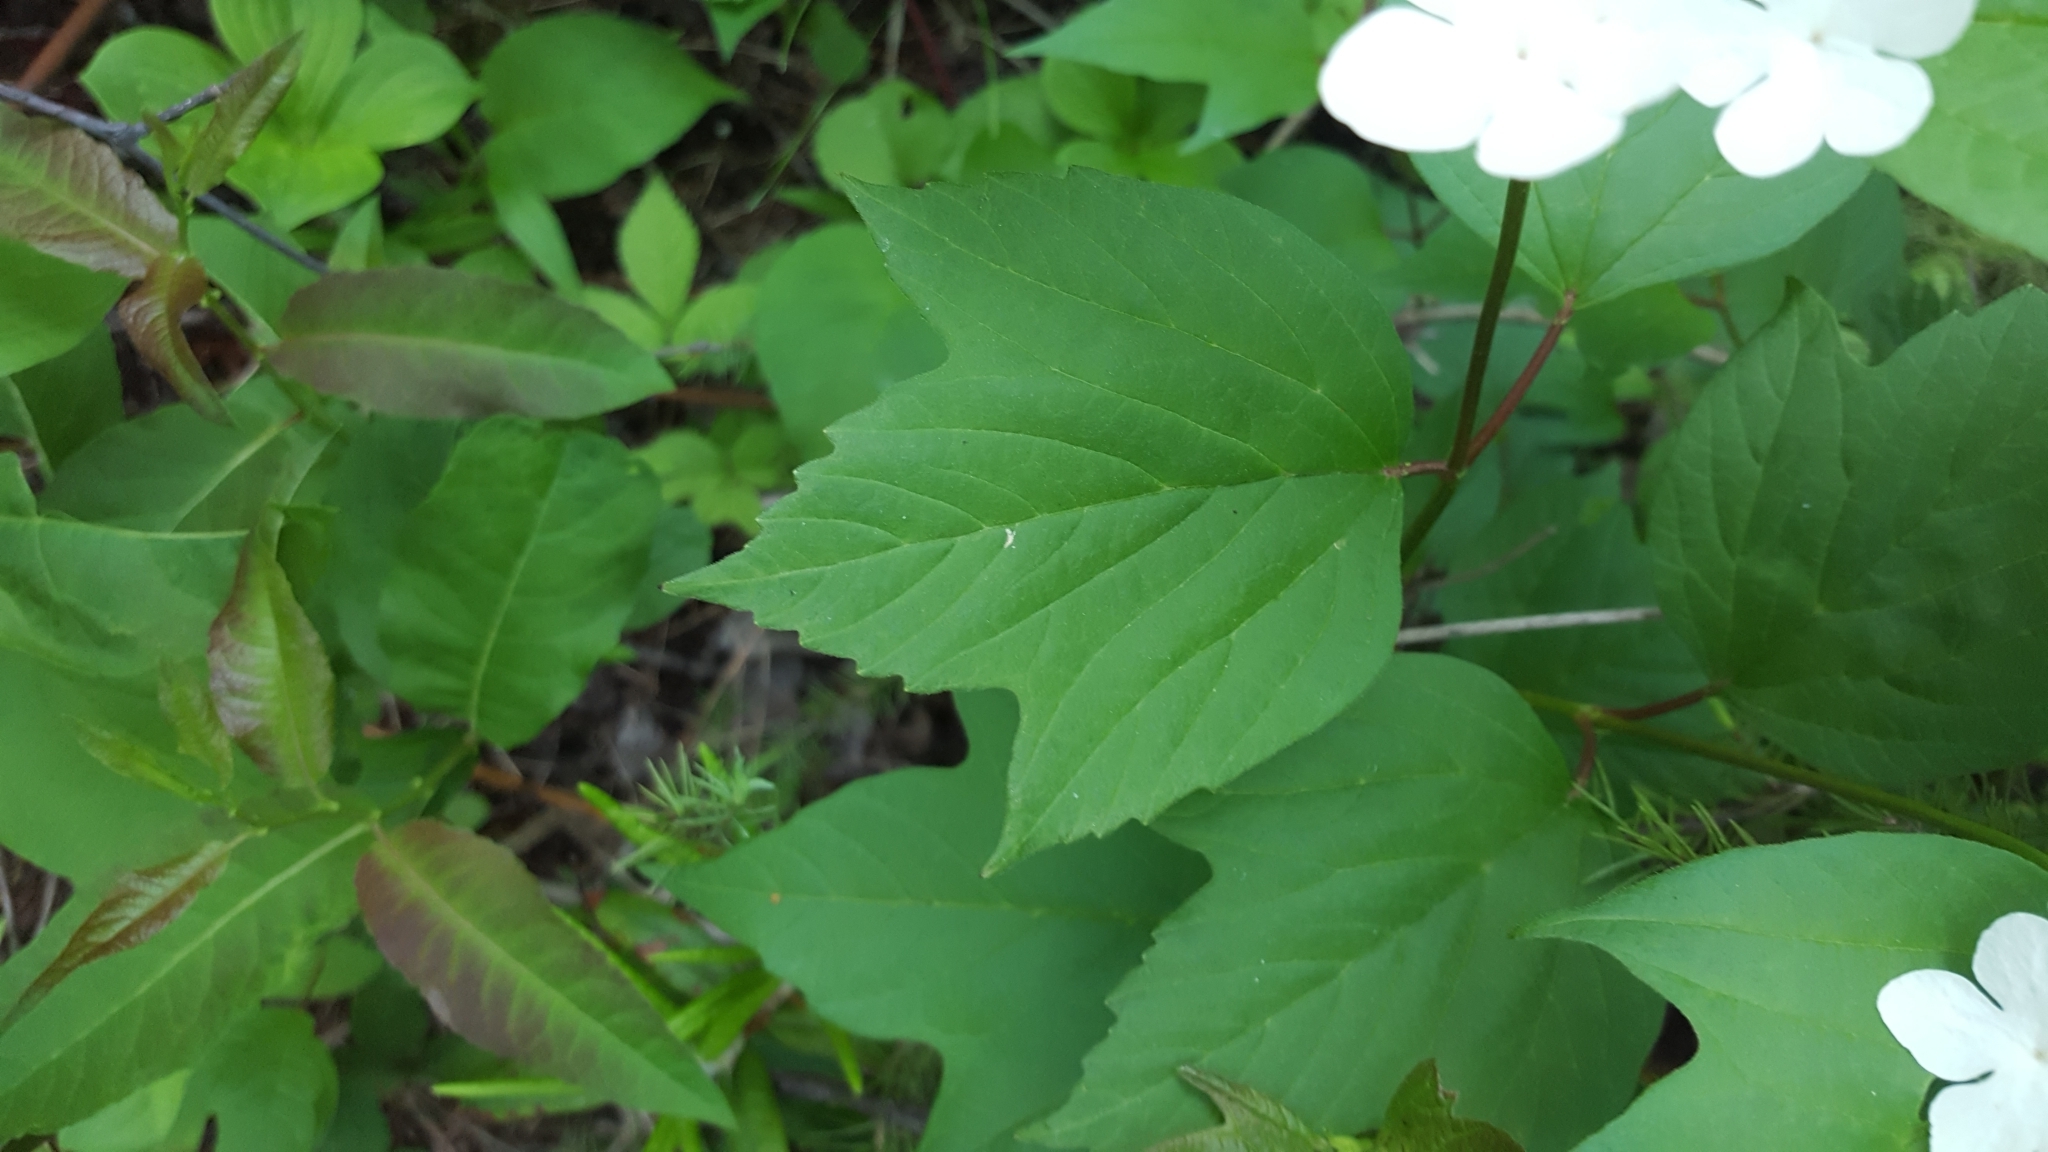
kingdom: Plantae
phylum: Tracheophyta
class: Magnoliopsida
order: Dipsacales
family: Viburnaceae
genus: Viburnum
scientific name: Viburnum trilobum
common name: American cranberrybush
